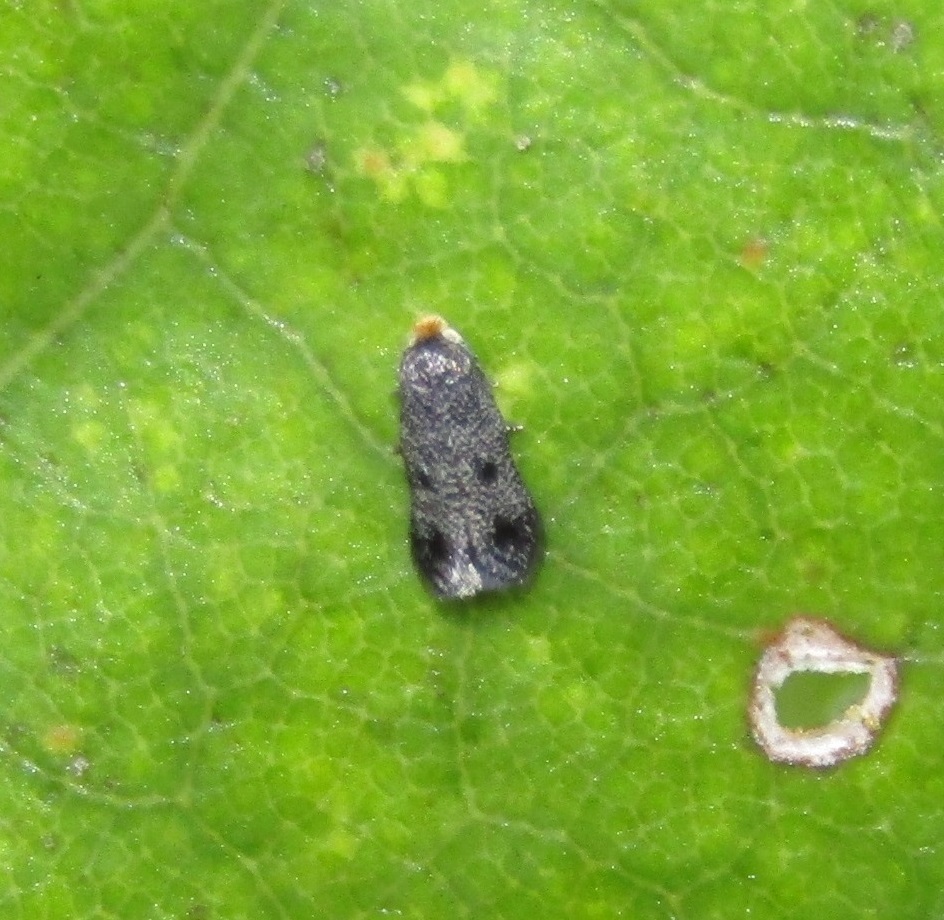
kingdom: Animalia
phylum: Arthropoda
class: Insecta
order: Lepidoptera
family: Nepticulidae
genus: Stigmella
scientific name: Stigmella cypracma
